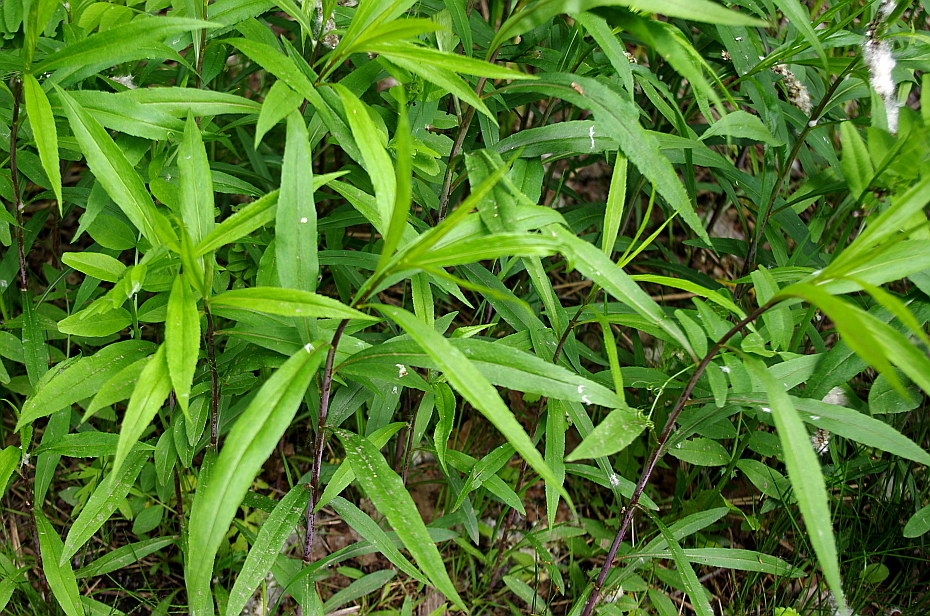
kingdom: Plantae
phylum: Tracheophyta
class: Magnoliopsida
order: Asterales
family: Asteraceae
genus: Solidago
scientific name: Solidago gigantea
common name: Giant goldenrod
